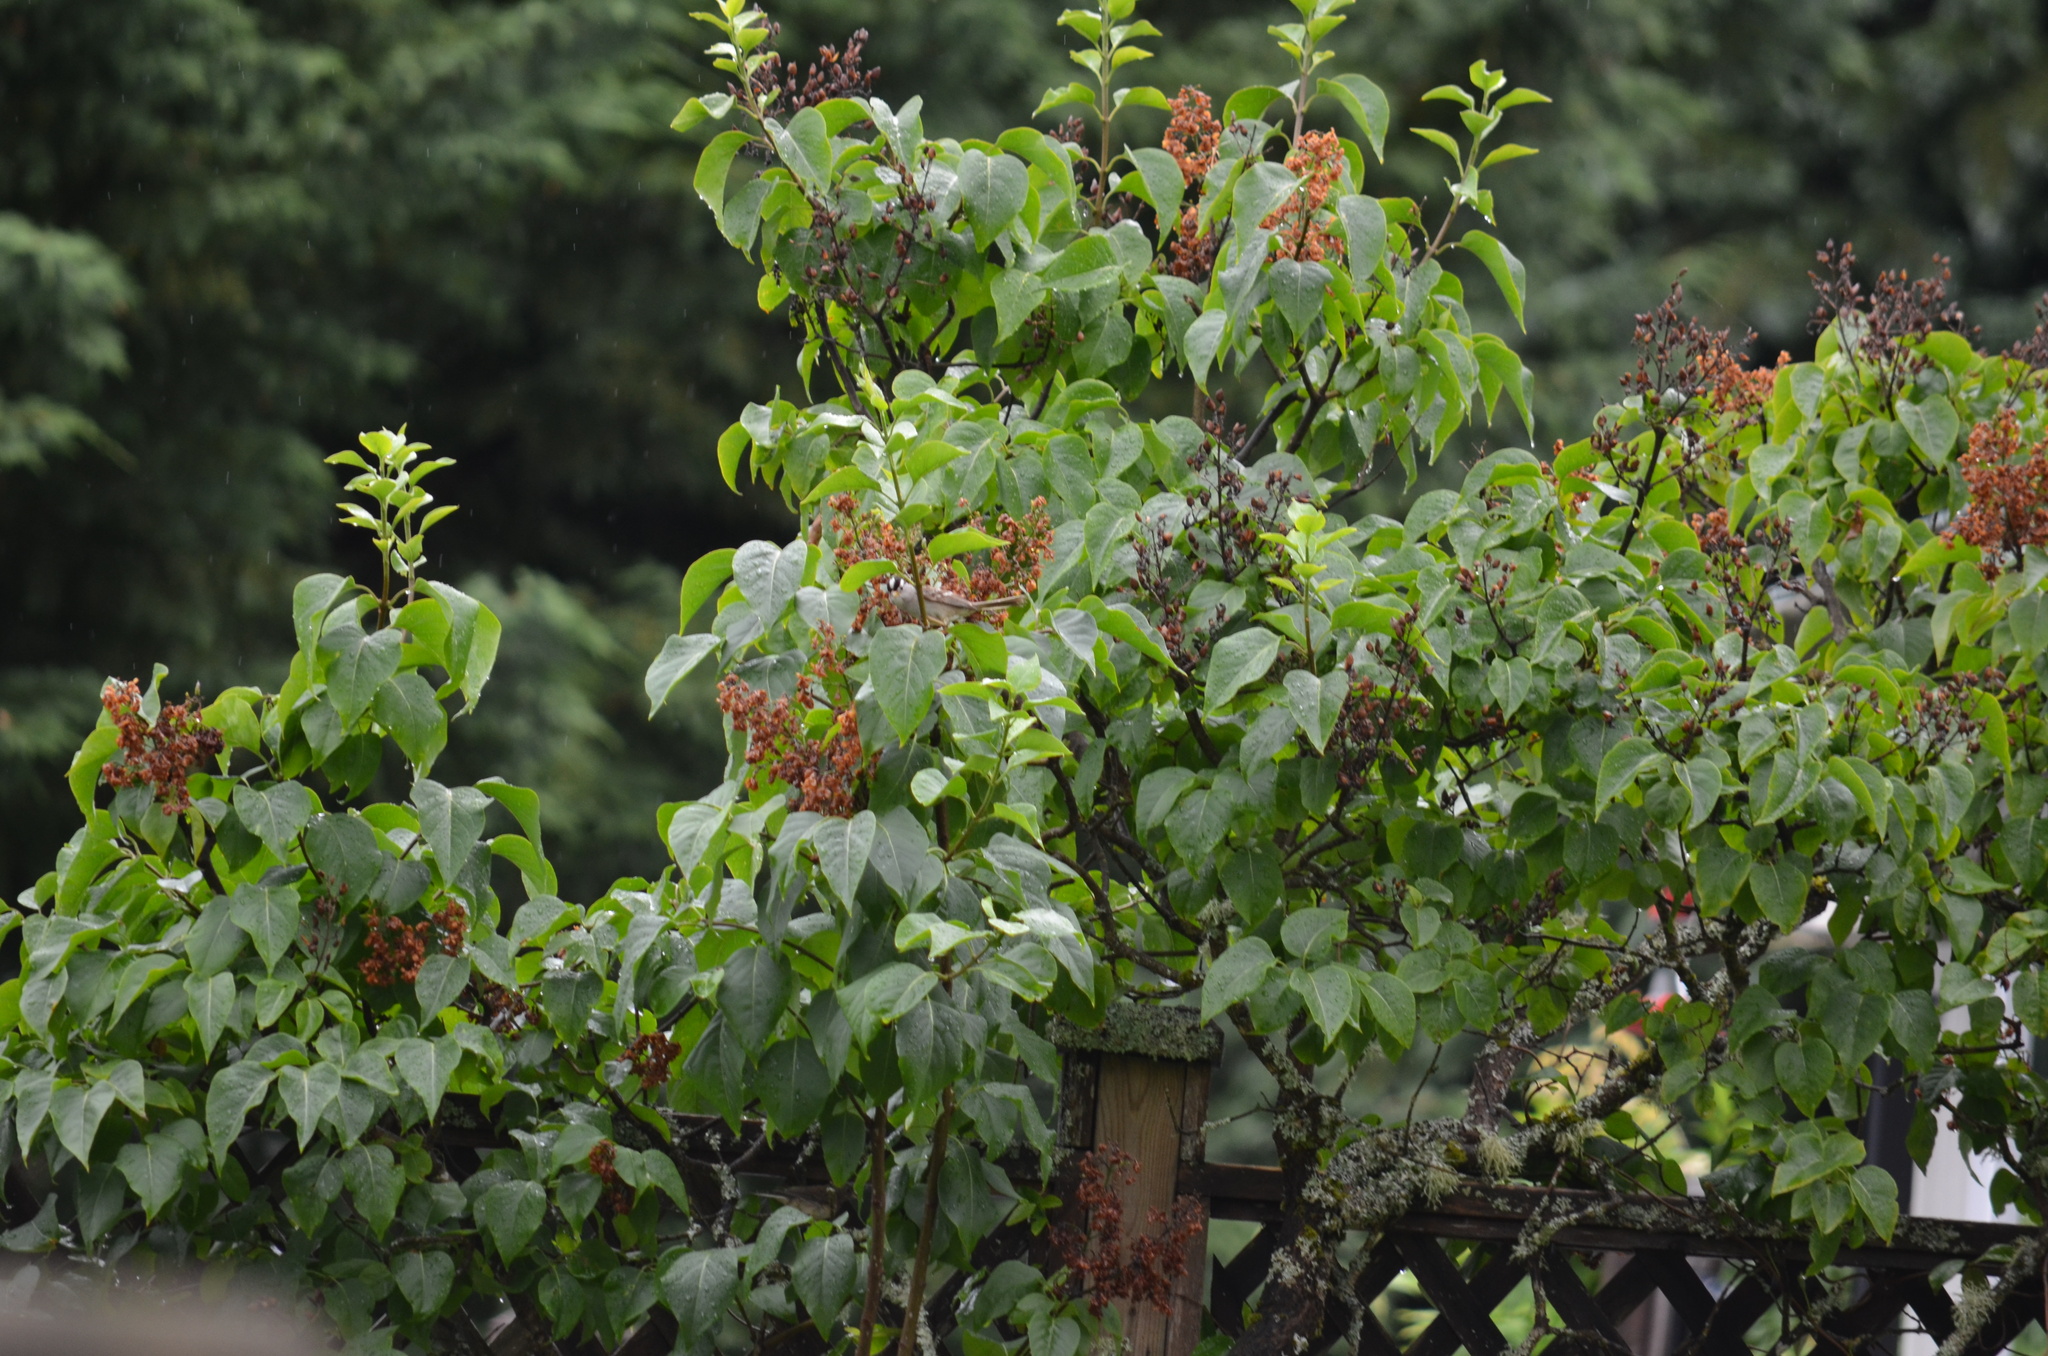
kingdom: Animalia
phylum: Chordata
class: Aves
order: Passeriformes
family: Passerellidae
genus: Zonotrichia
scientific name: Zonotrichia leucophrys
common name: White-crowned sparrow
